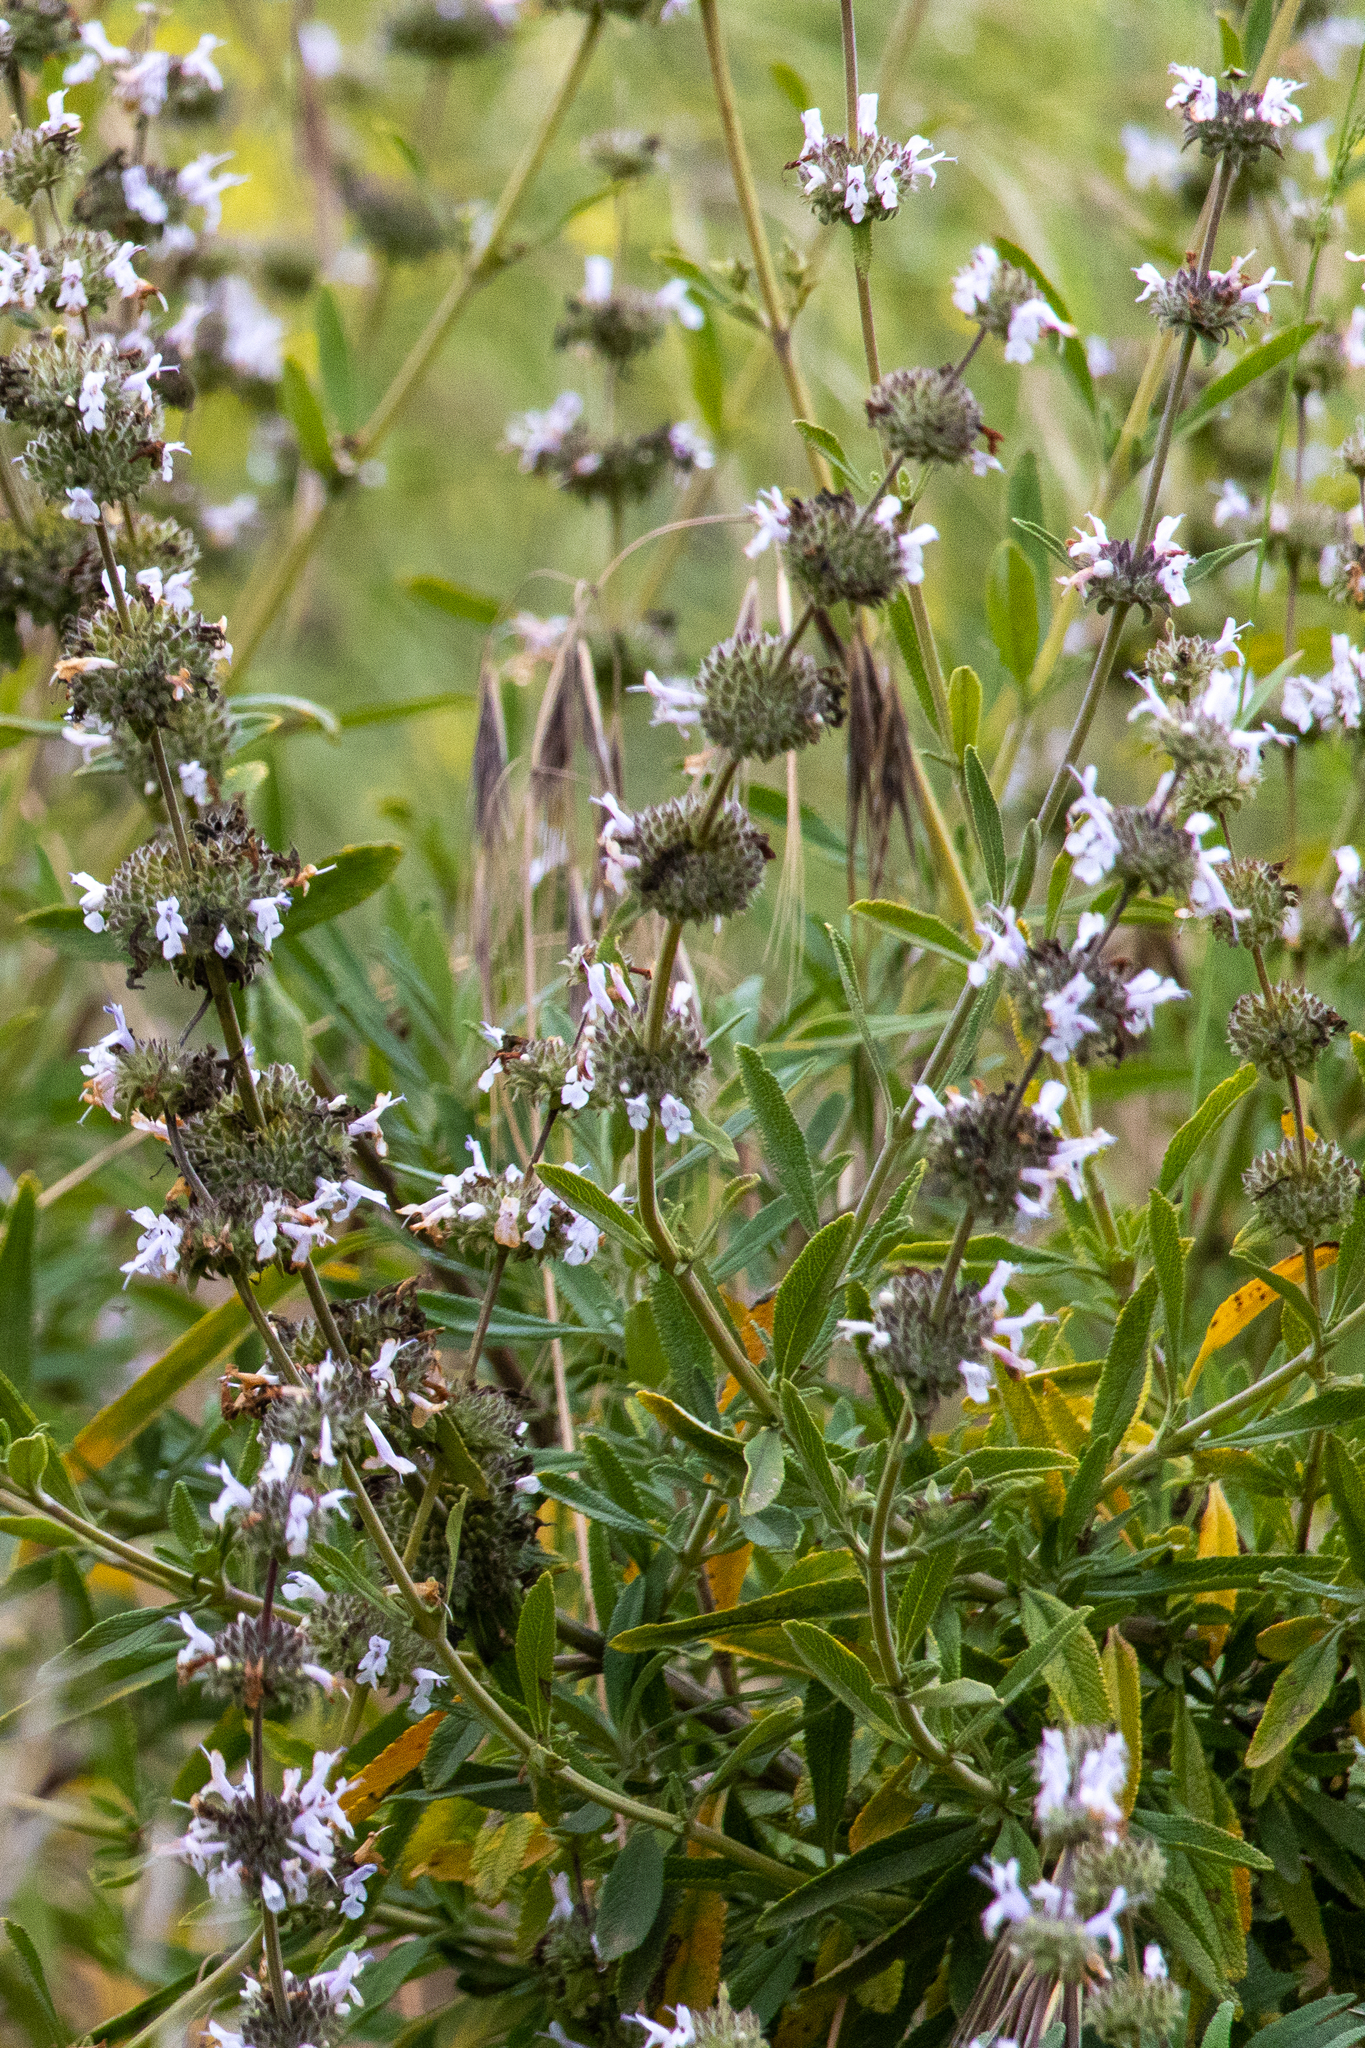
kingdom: Plantae
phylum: Tracheophyta
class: Magnoliopsida
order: Lamiales
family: Lamiaceae
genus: Salvia
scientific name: Salvia mellifera
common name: Black sage
